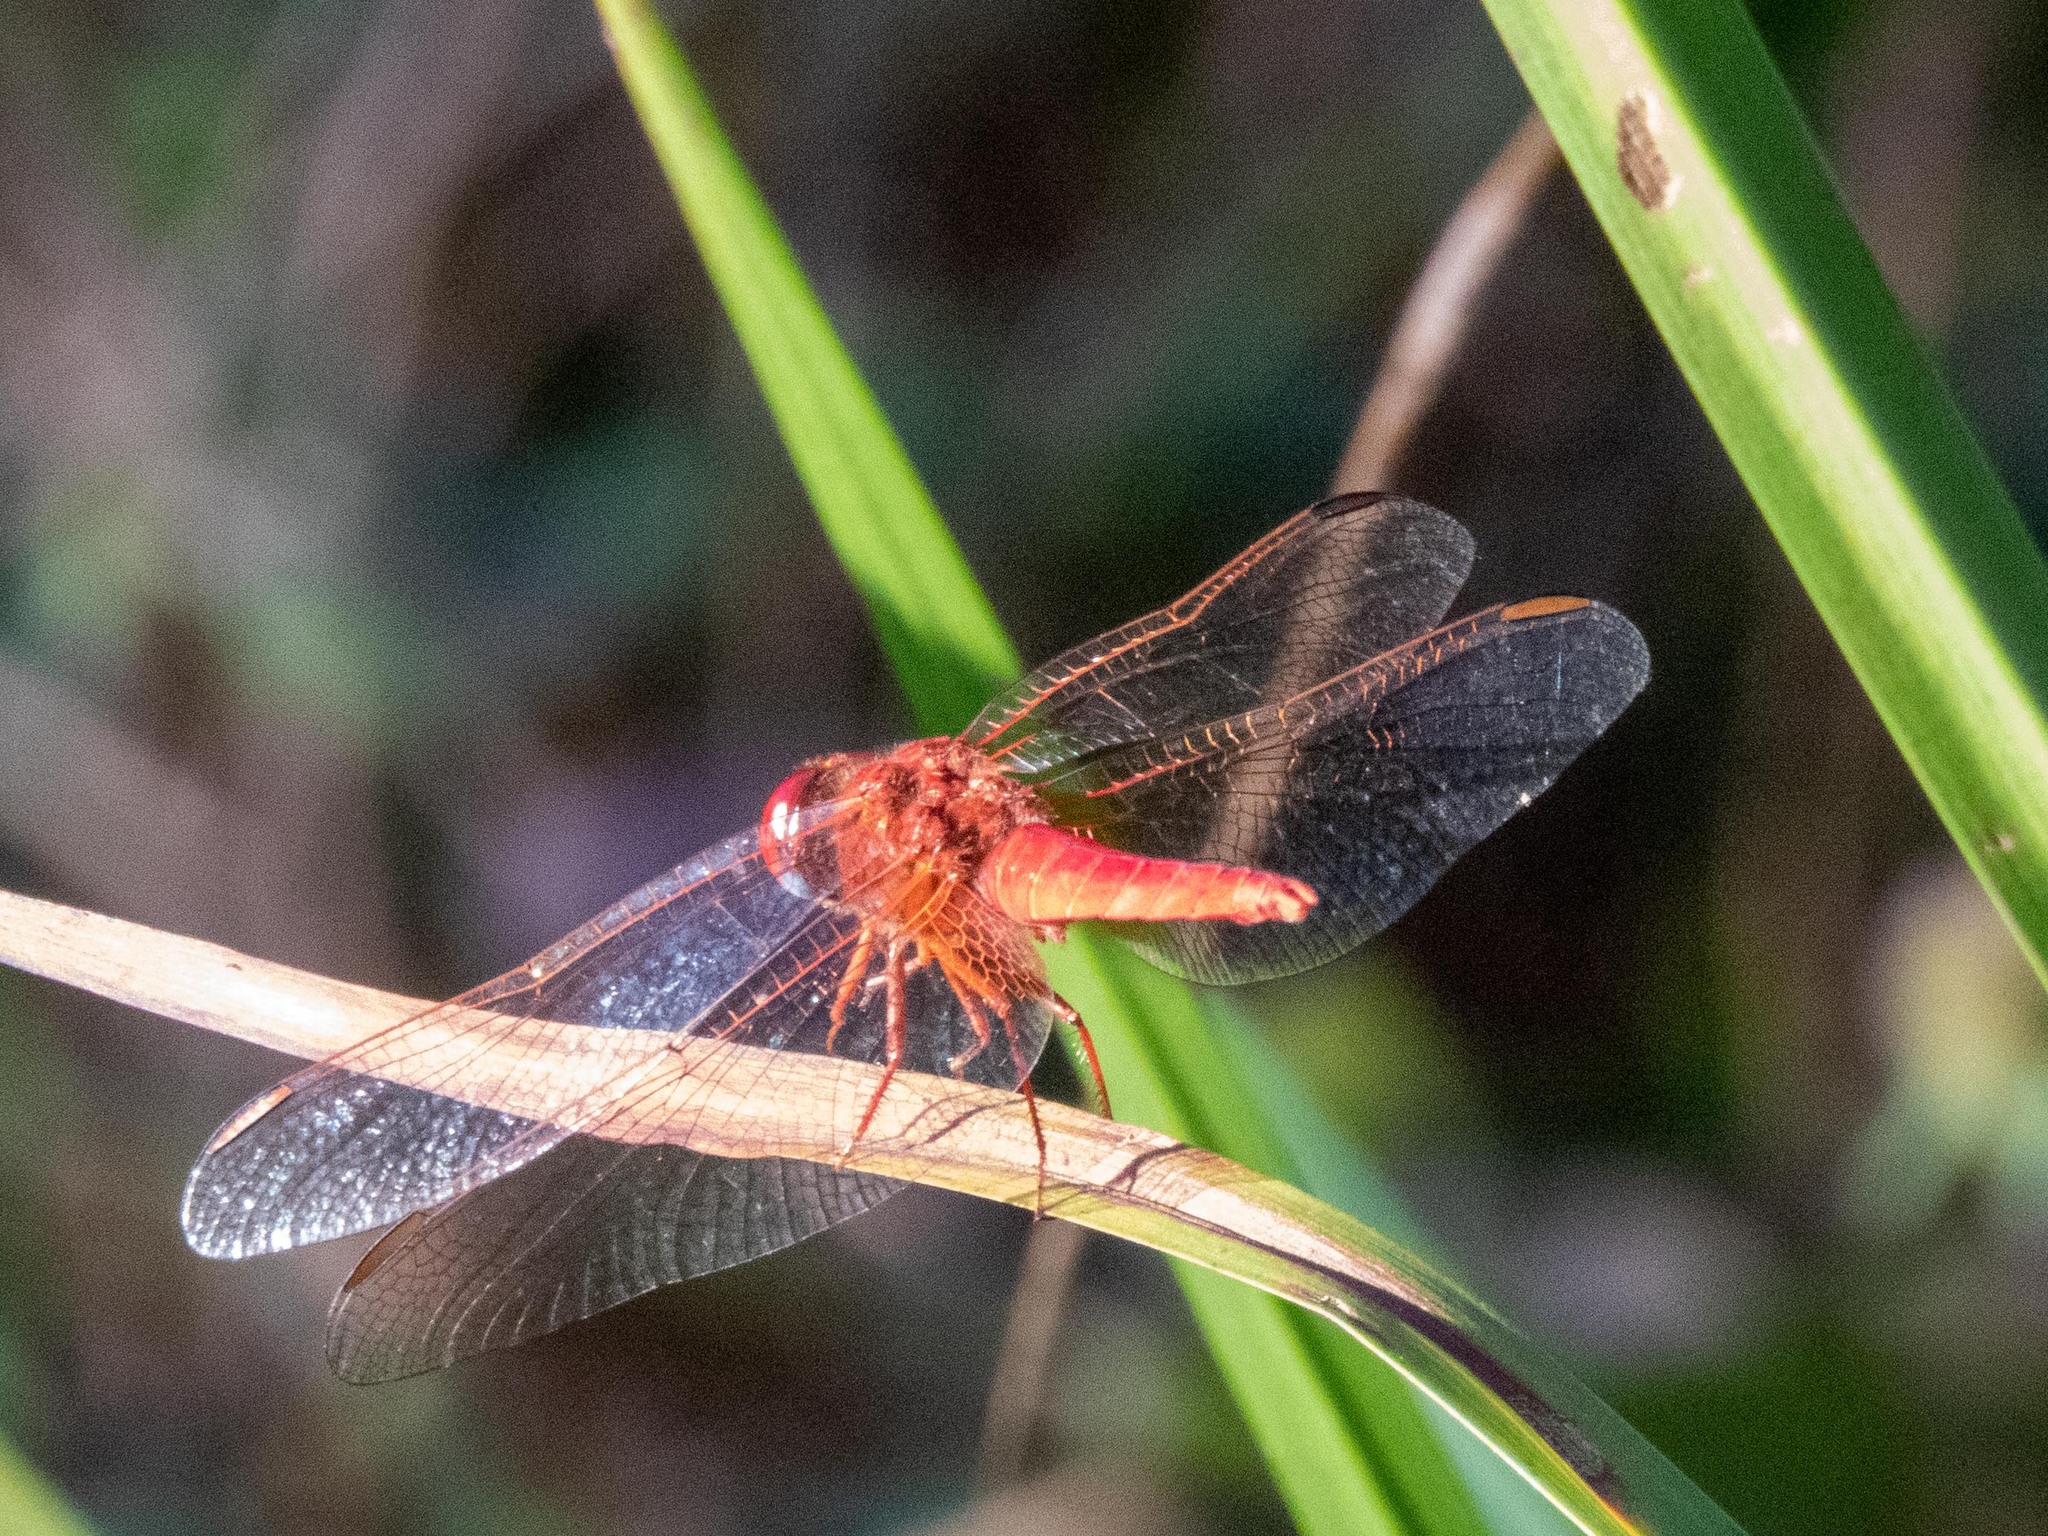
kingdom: Animalia
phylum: Arthropoda
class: Insecta
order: Odonata
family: Libellulidae
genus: Crocothemis
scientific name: Crocothemis erythraea
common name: Scarlet dragonfly
